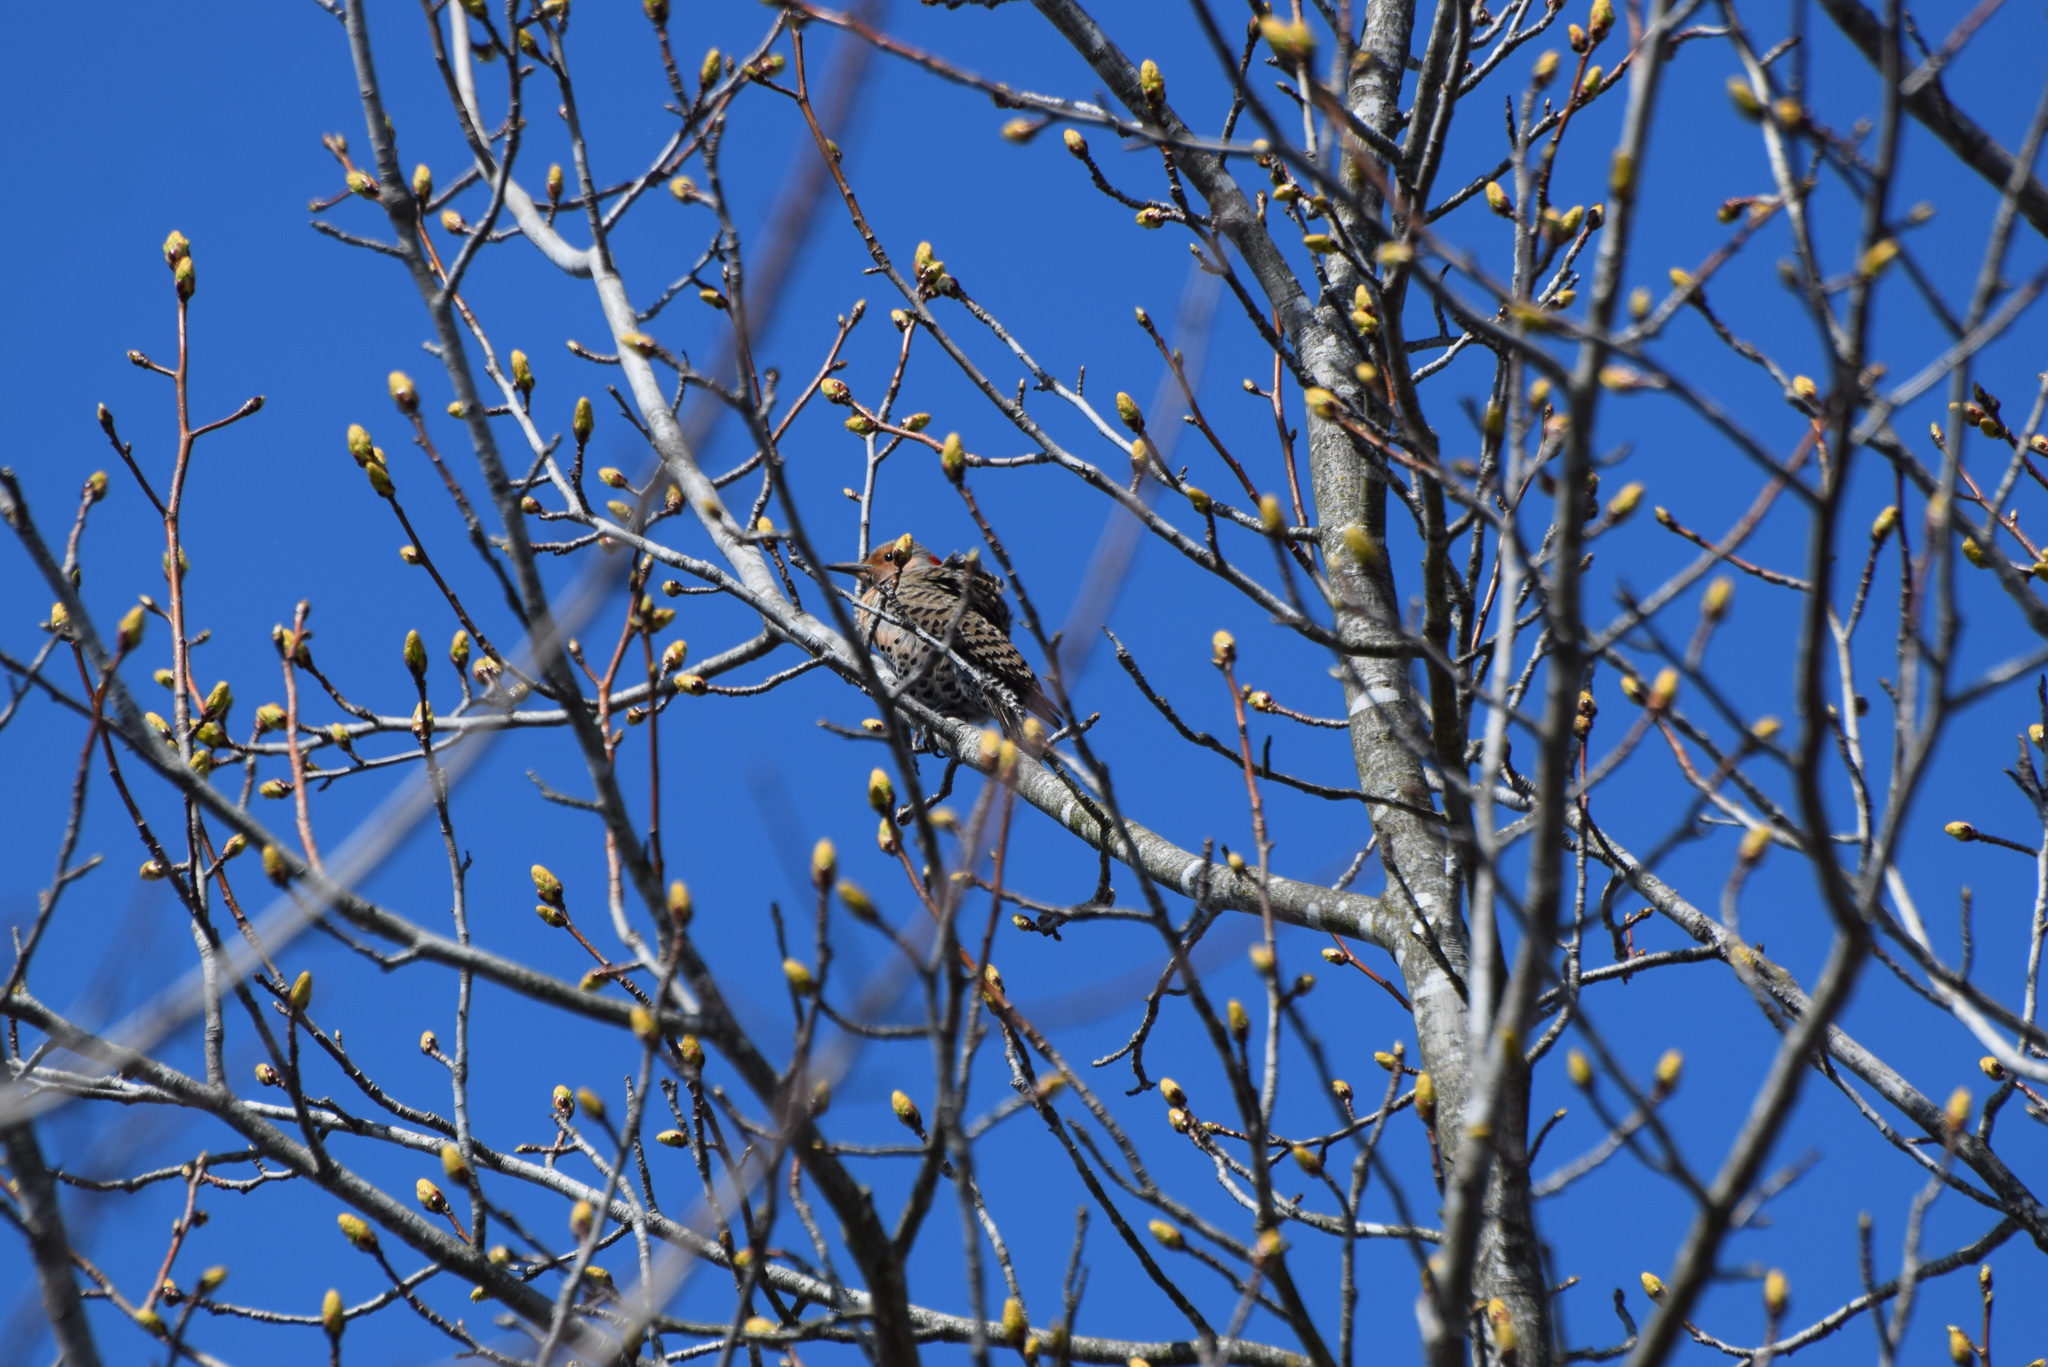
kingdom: Animalia
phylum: Chordata
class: Aves
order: Piciformes
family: Picidae
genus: Colaptes
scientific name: Colaptes auratus
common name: Northern flicker
